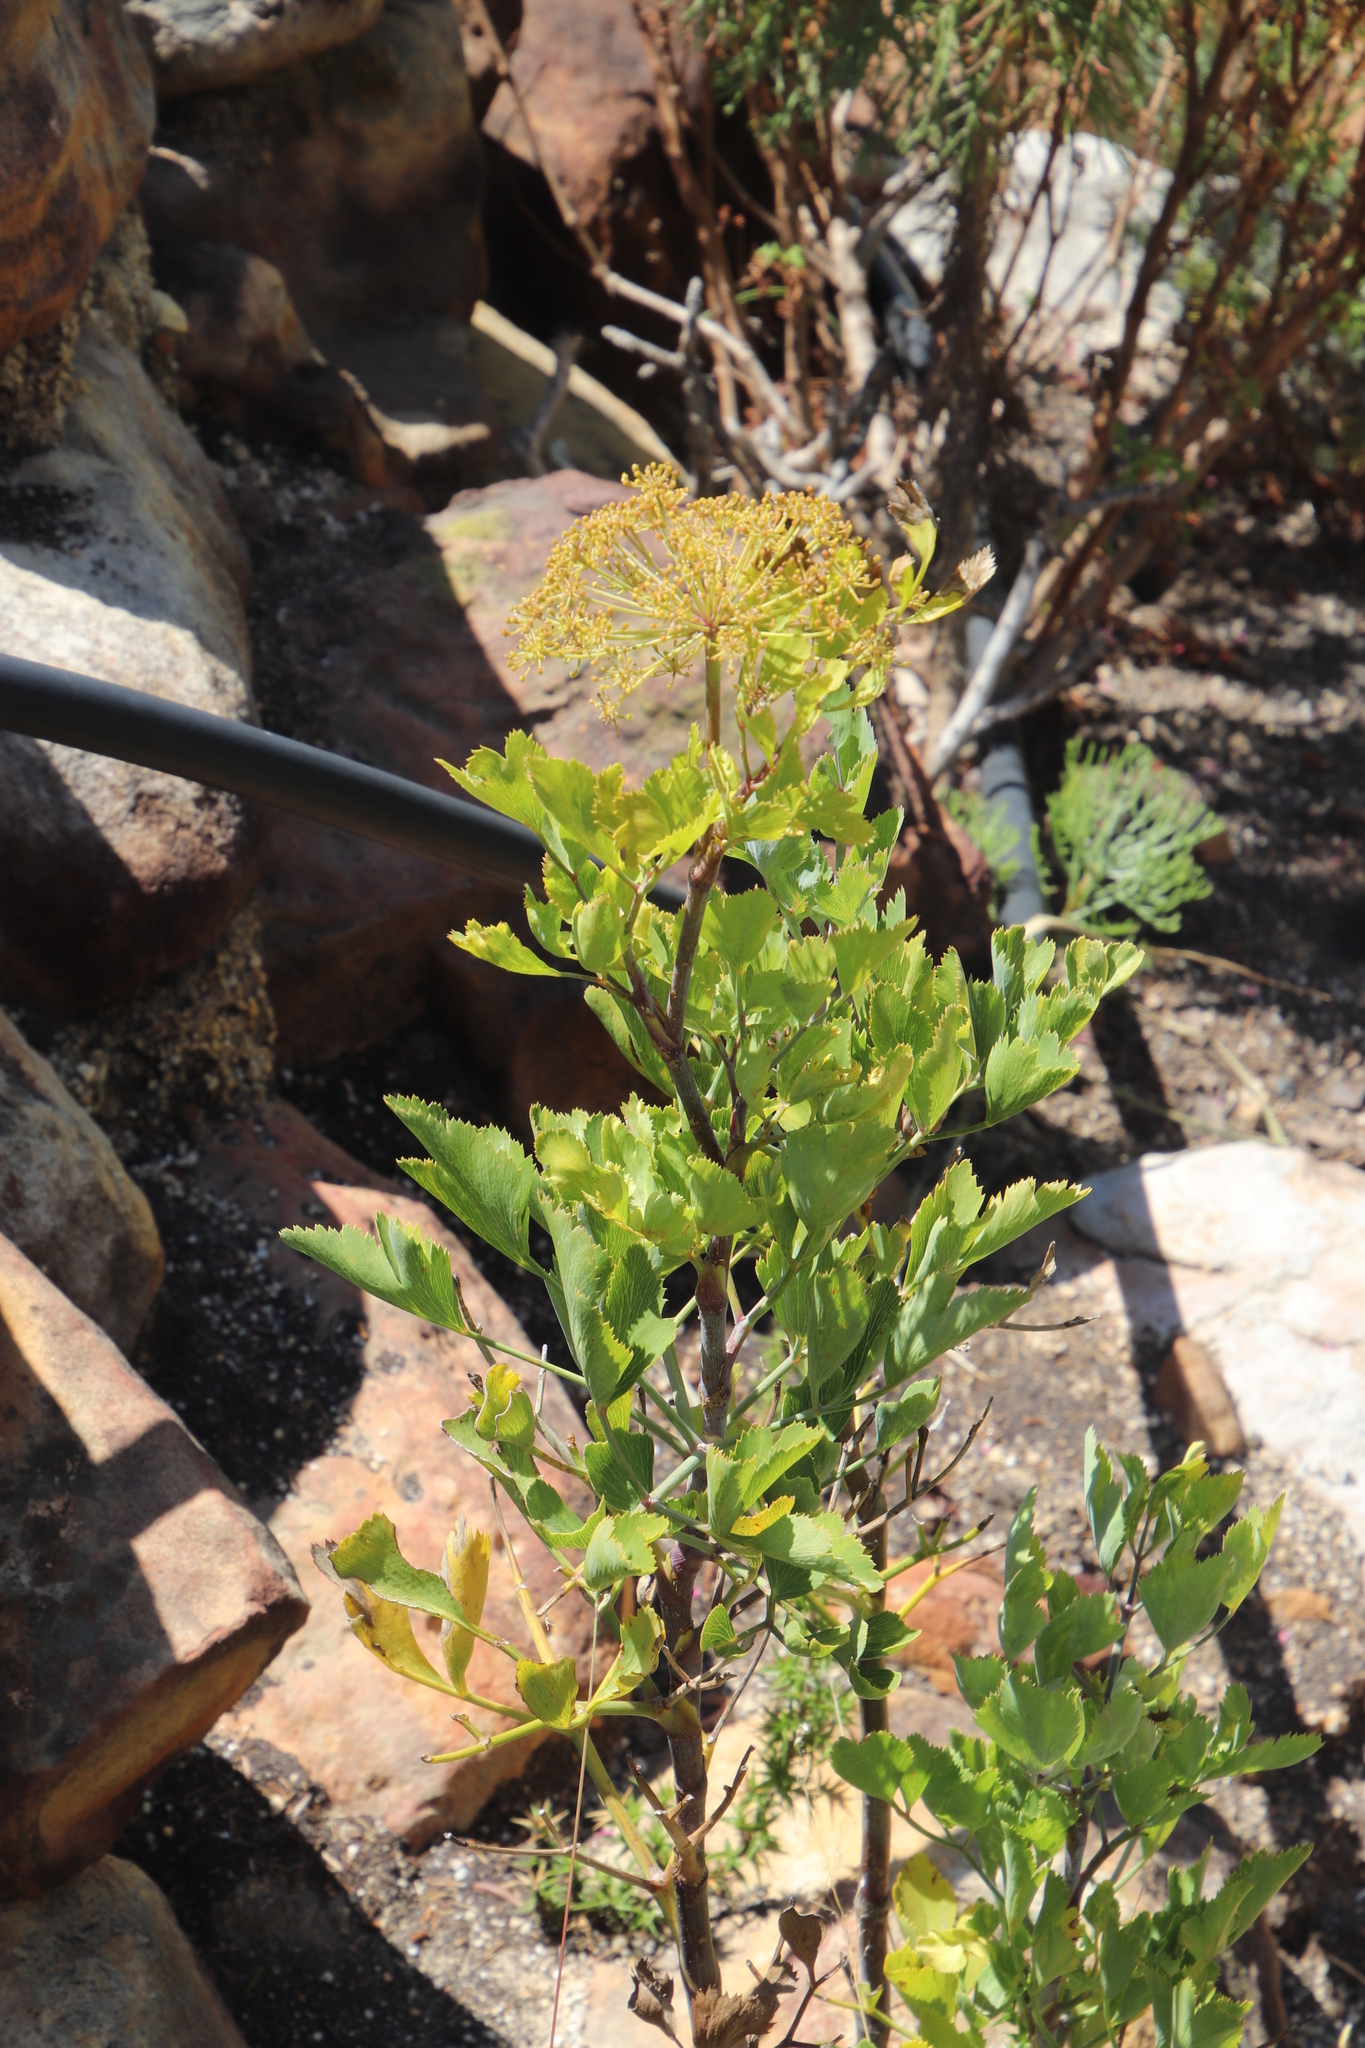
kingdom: Plantae
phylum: Tracheophyta
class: Magnoliopsida
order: Apiales
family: Apiaceae
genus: Notobubon
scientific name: Notobubon galbanum
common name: Blisterbush
